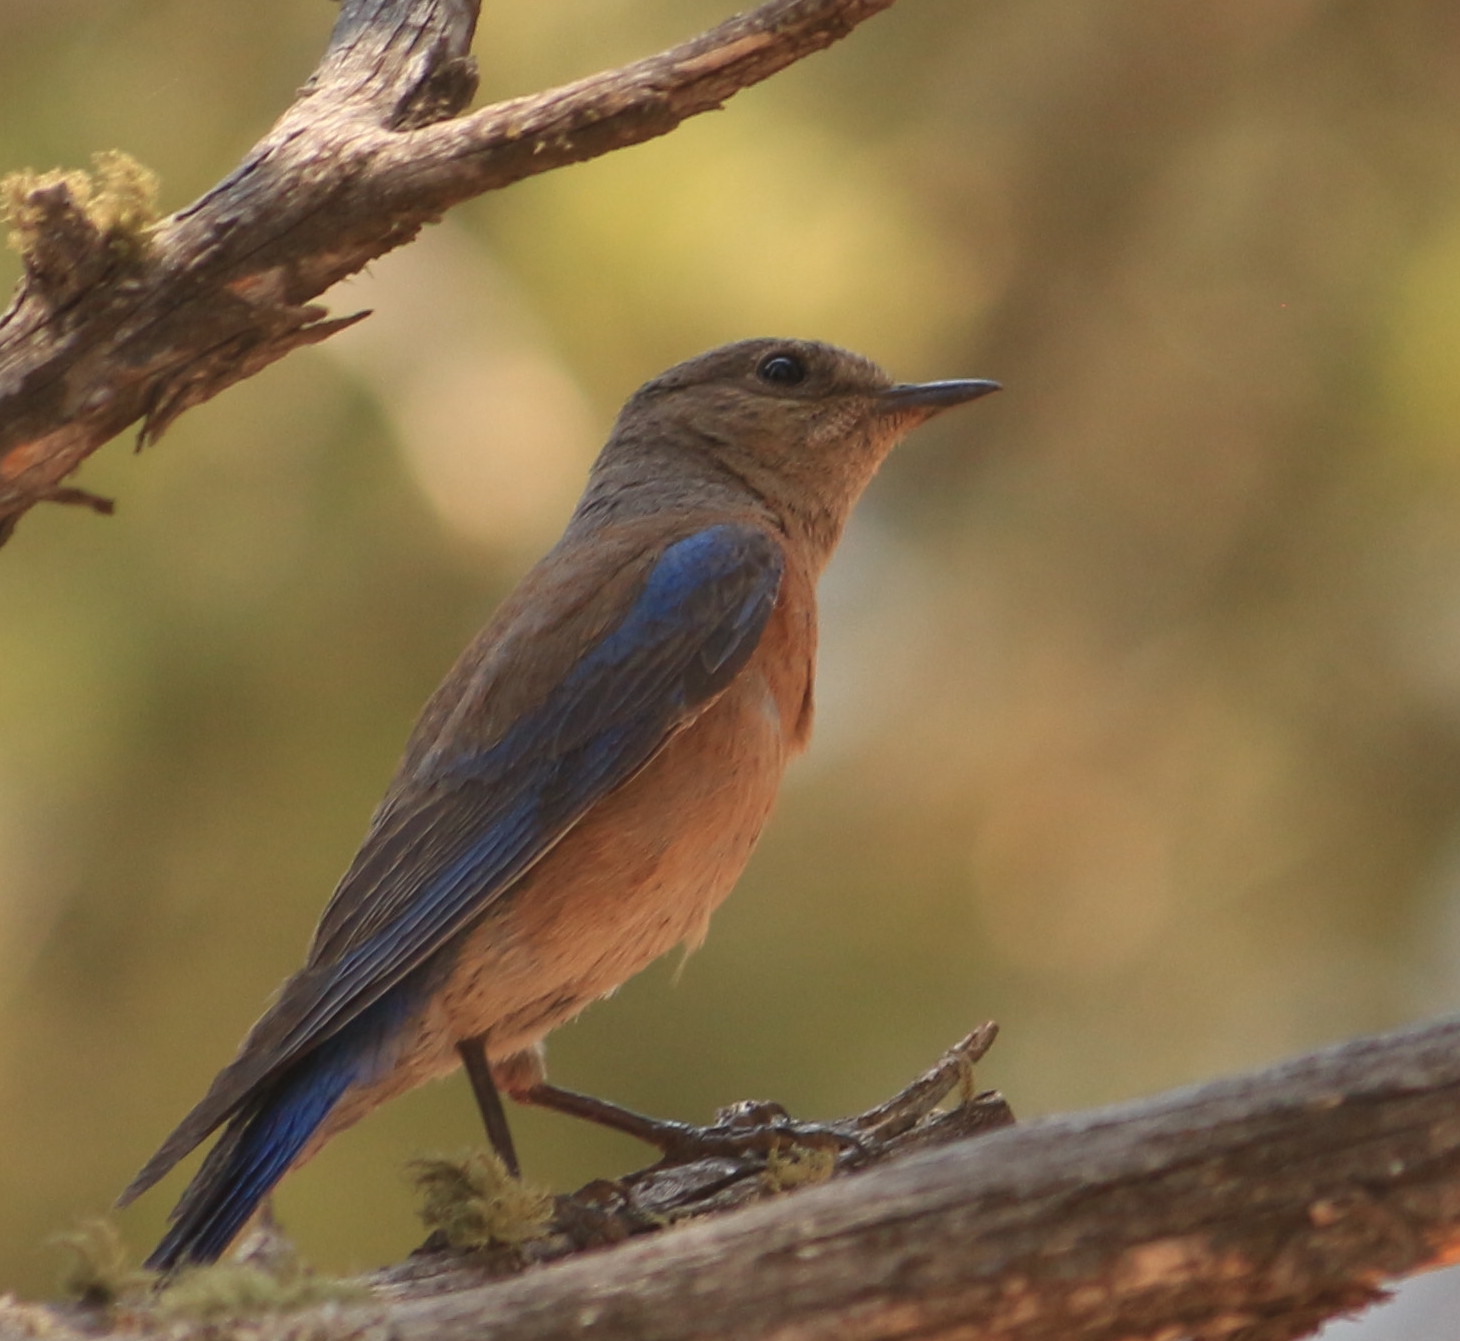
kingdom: Animalia
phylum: Chordata
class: Aves
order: Passeriformes
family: Turdidae
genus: Sialia
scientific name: Sialia mexicana
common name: Western bluebird
